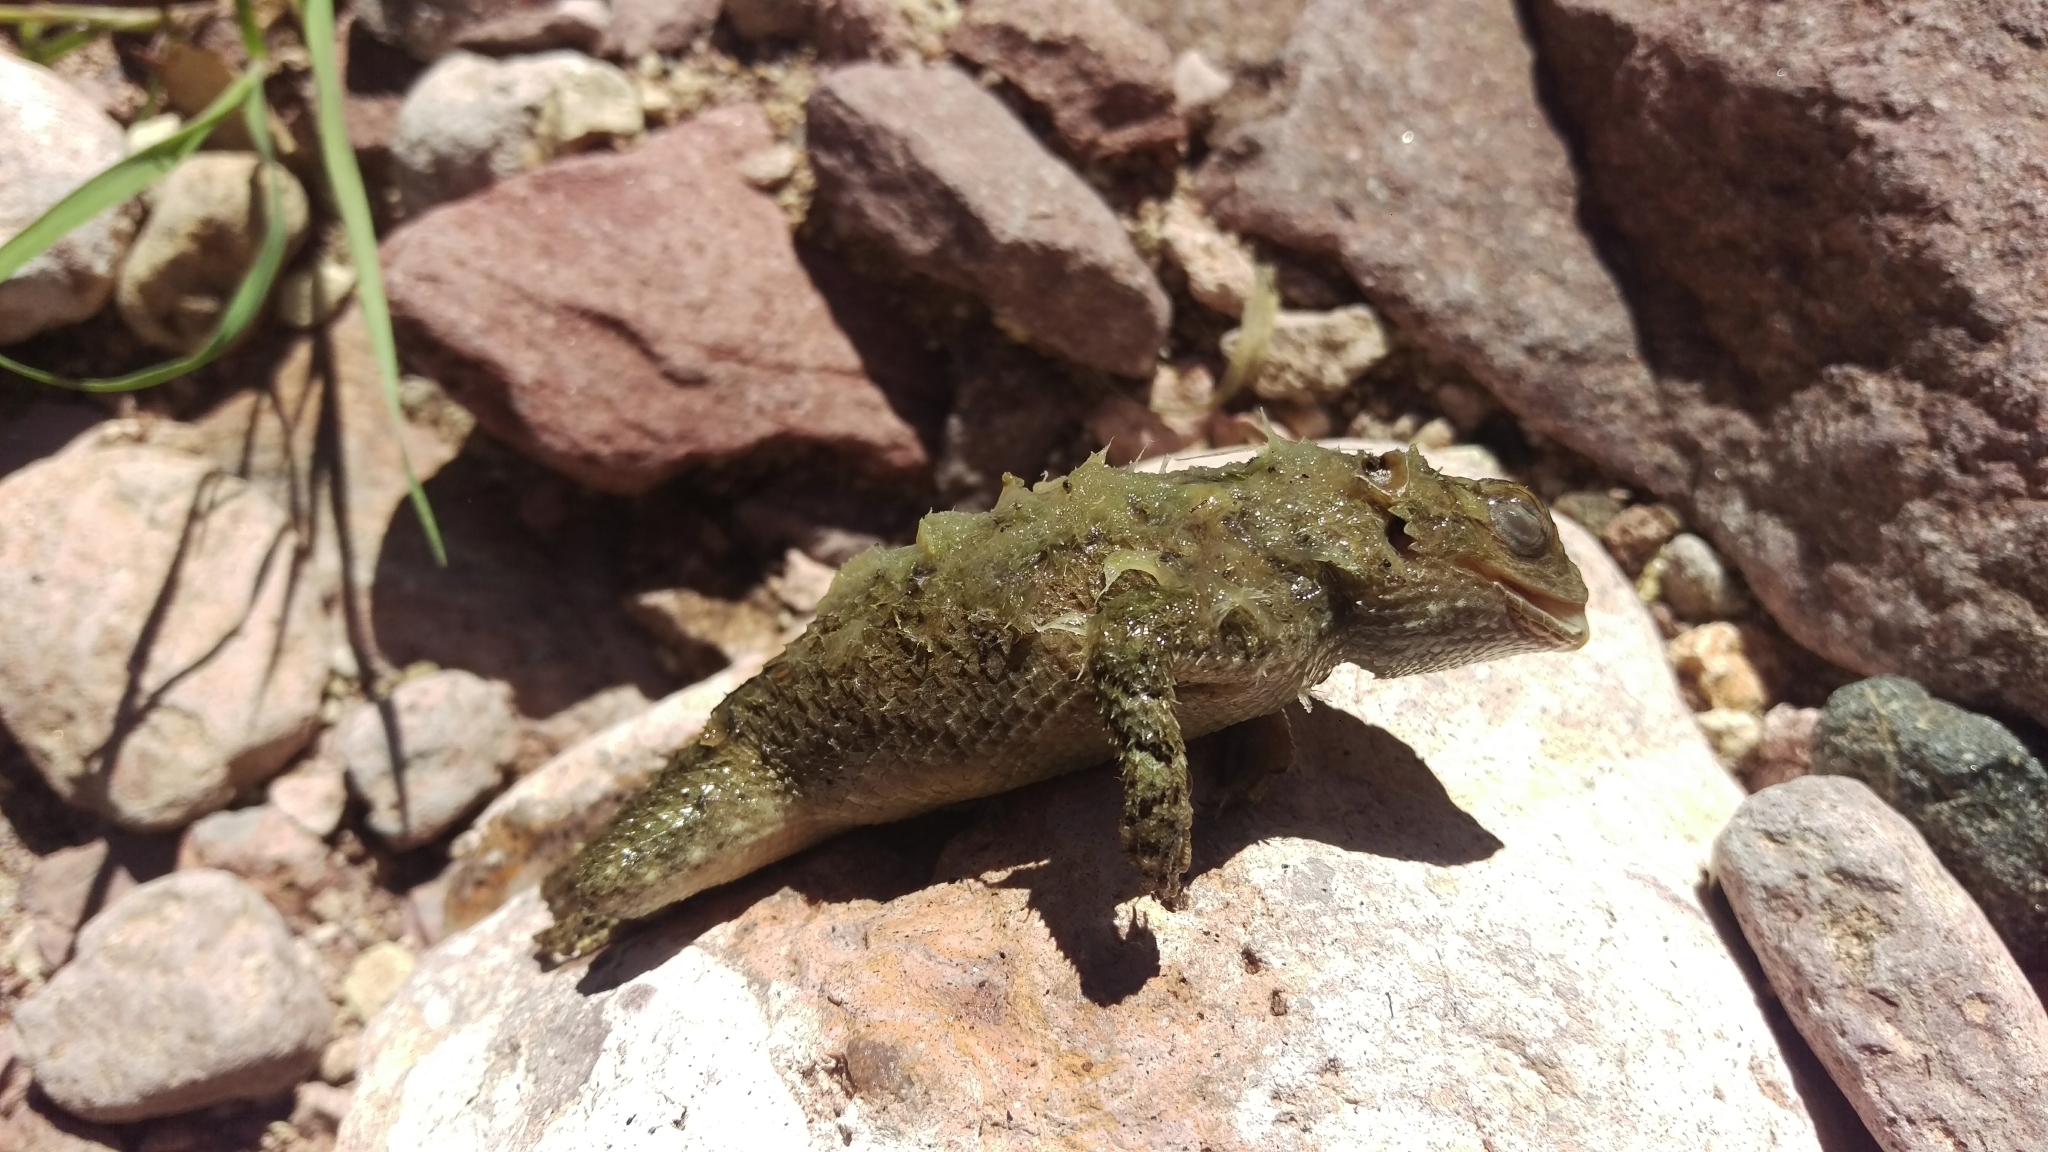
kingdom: Animalia
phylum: Chordata
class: Squamata
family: Phrynosomatidae
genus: Sceloporus
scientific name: Sceloporus clarkii
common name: Clark's spiny lizard
